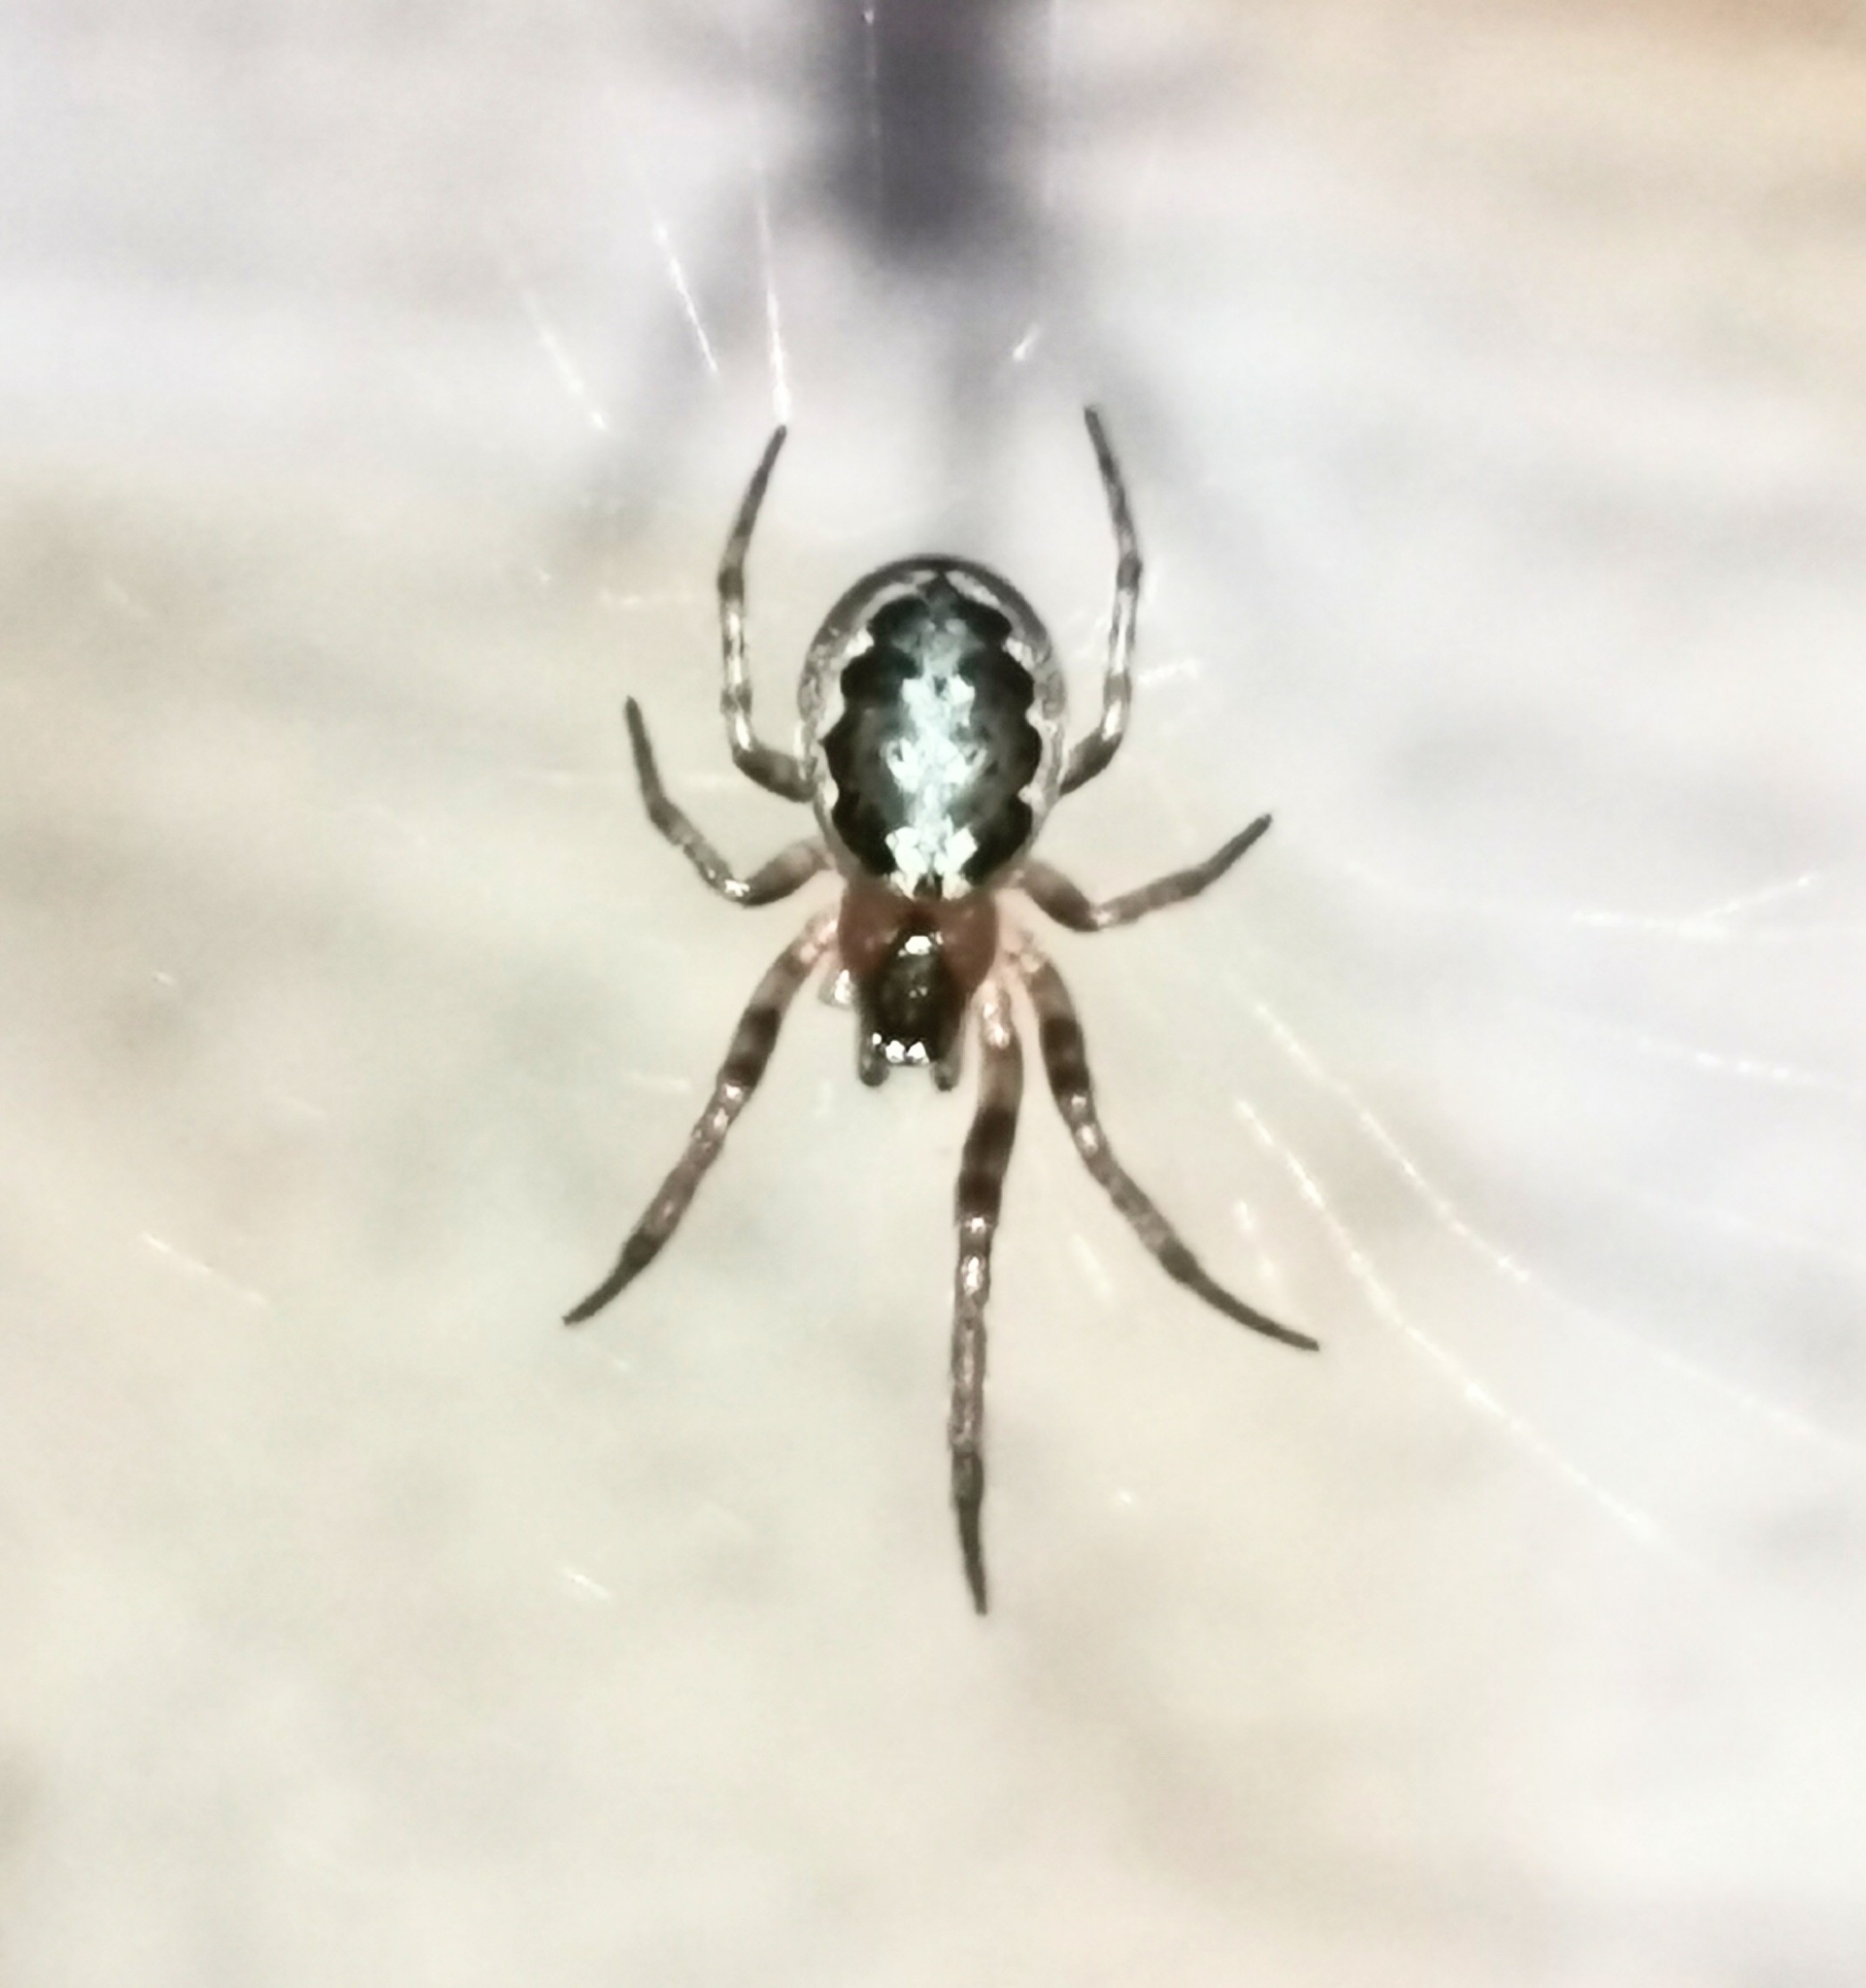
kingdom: Animalia
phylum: Arthropoda
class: Arachnida
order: Araneae
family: Araneidae
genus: Leviellus
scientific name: Leviellus stroemi
